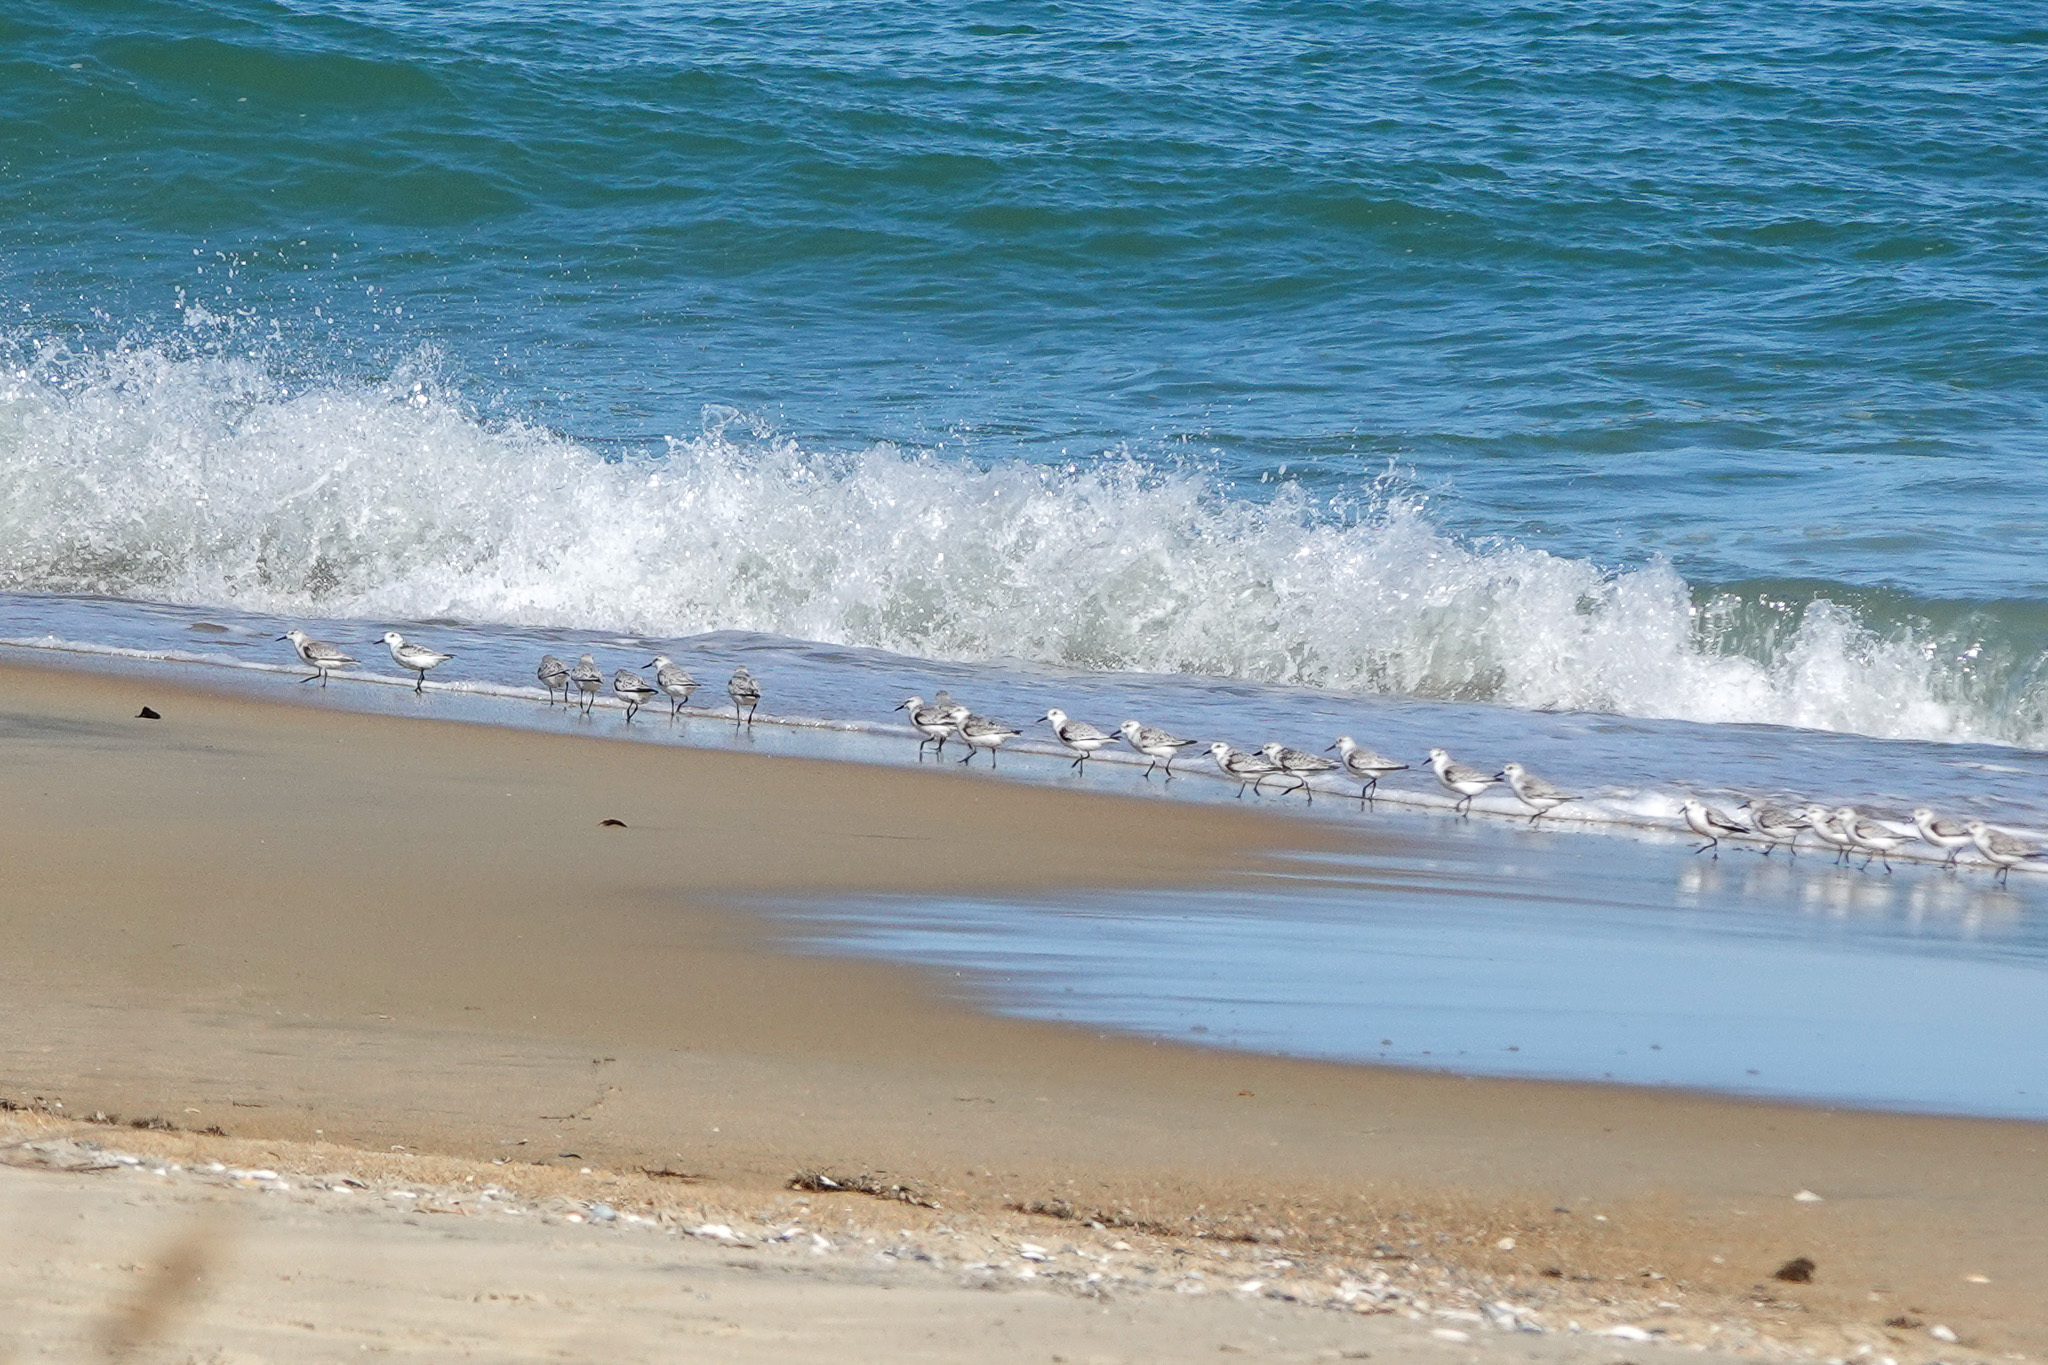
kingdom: Animalia
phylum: Chordata
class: Aves
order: Charadriiformes
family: Scolopacidae
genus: Calidris
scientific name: Calidris alba
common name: Sanderling
